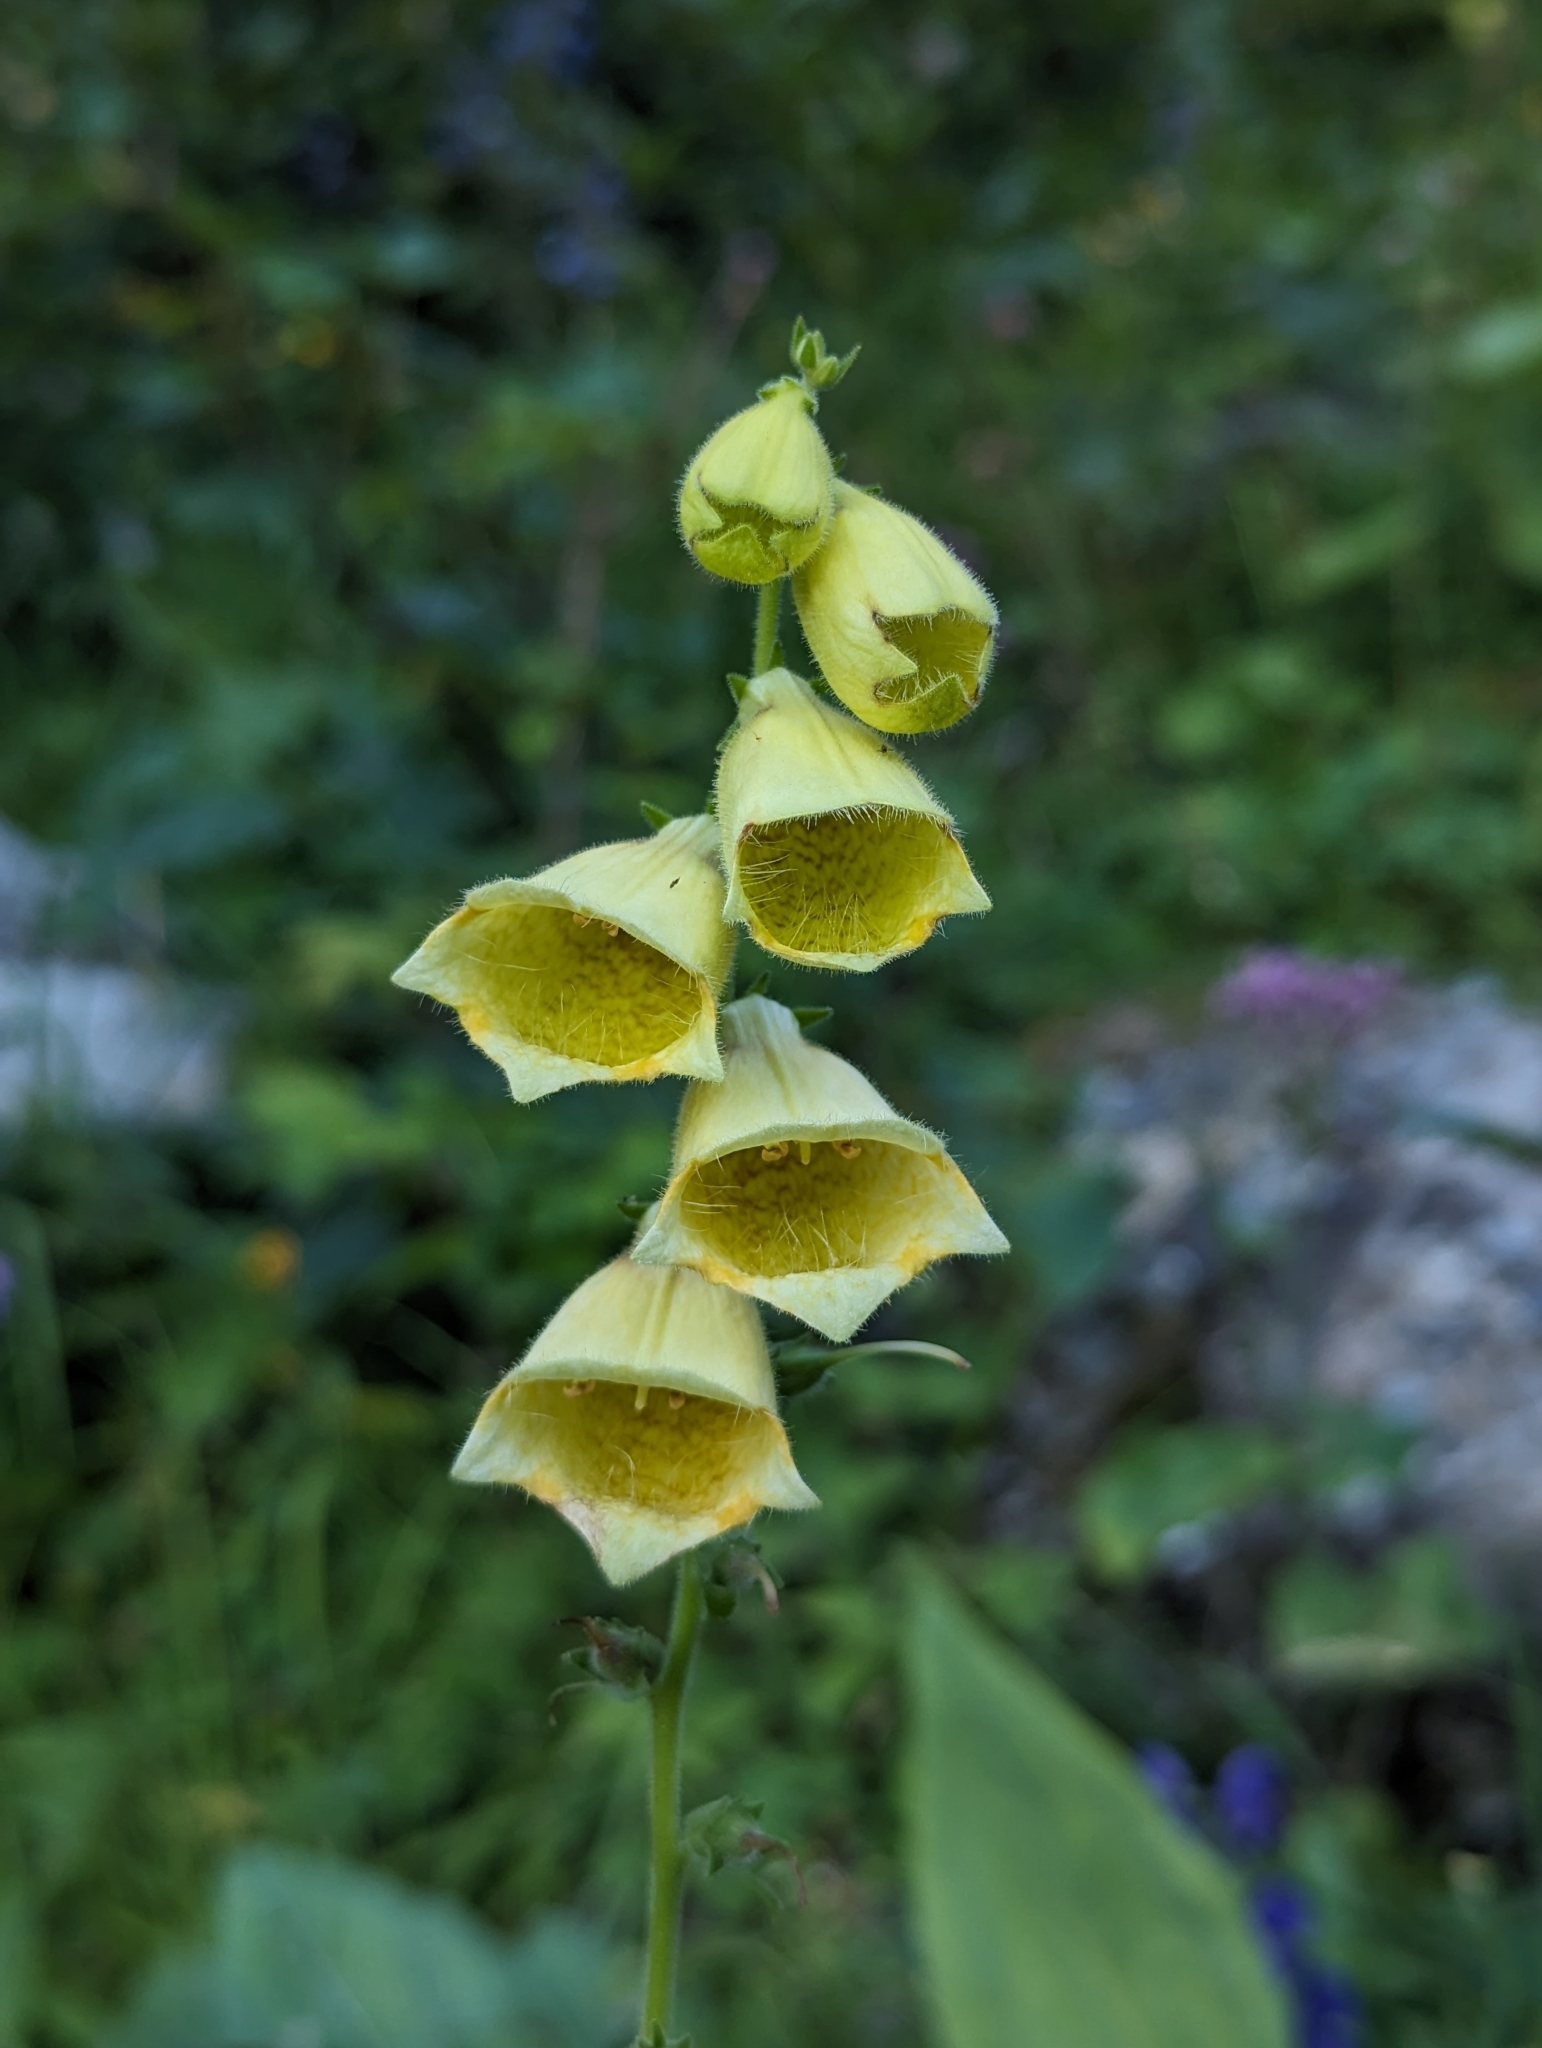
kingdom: Plantae
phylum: Tracheophyta
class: Magnoliopsida
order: Lamiales
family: Plantaginaceae
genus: Digitalis
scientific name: Digitalis grandiflora
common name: Yellow foxglove
